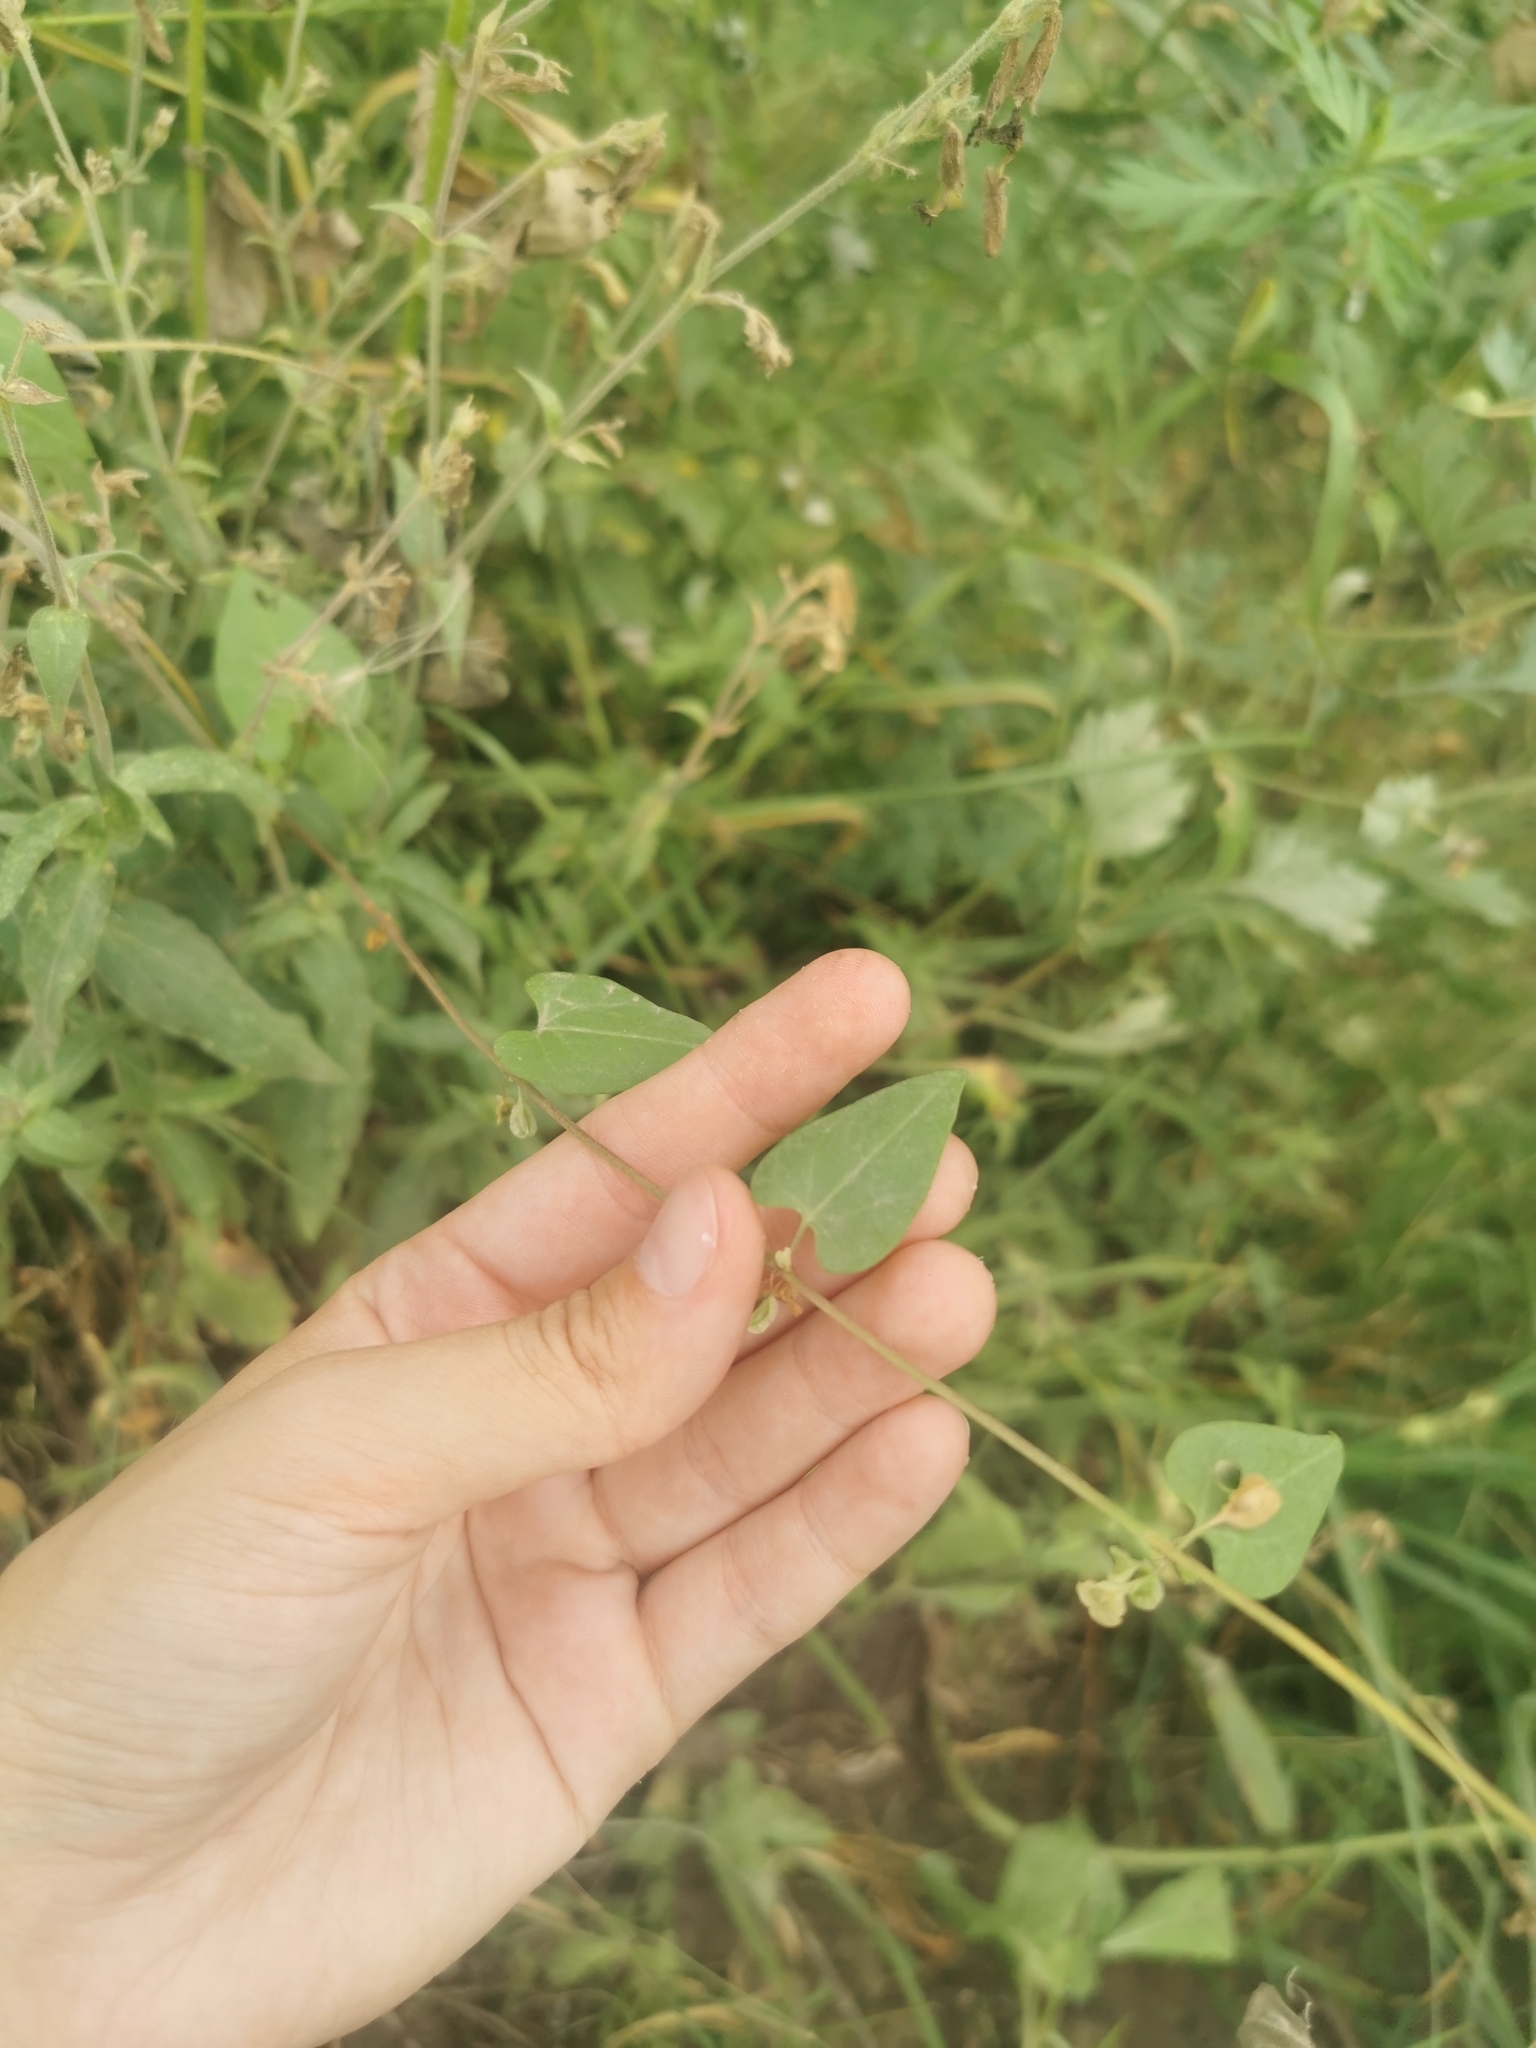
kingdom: Plantae
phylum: Tracheophyta
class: Magnoliopsida
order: Caryophyllales
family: Polygonaceae
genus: Fallopia
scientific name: Fallopia dumetorum
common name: Copse-bindweed
